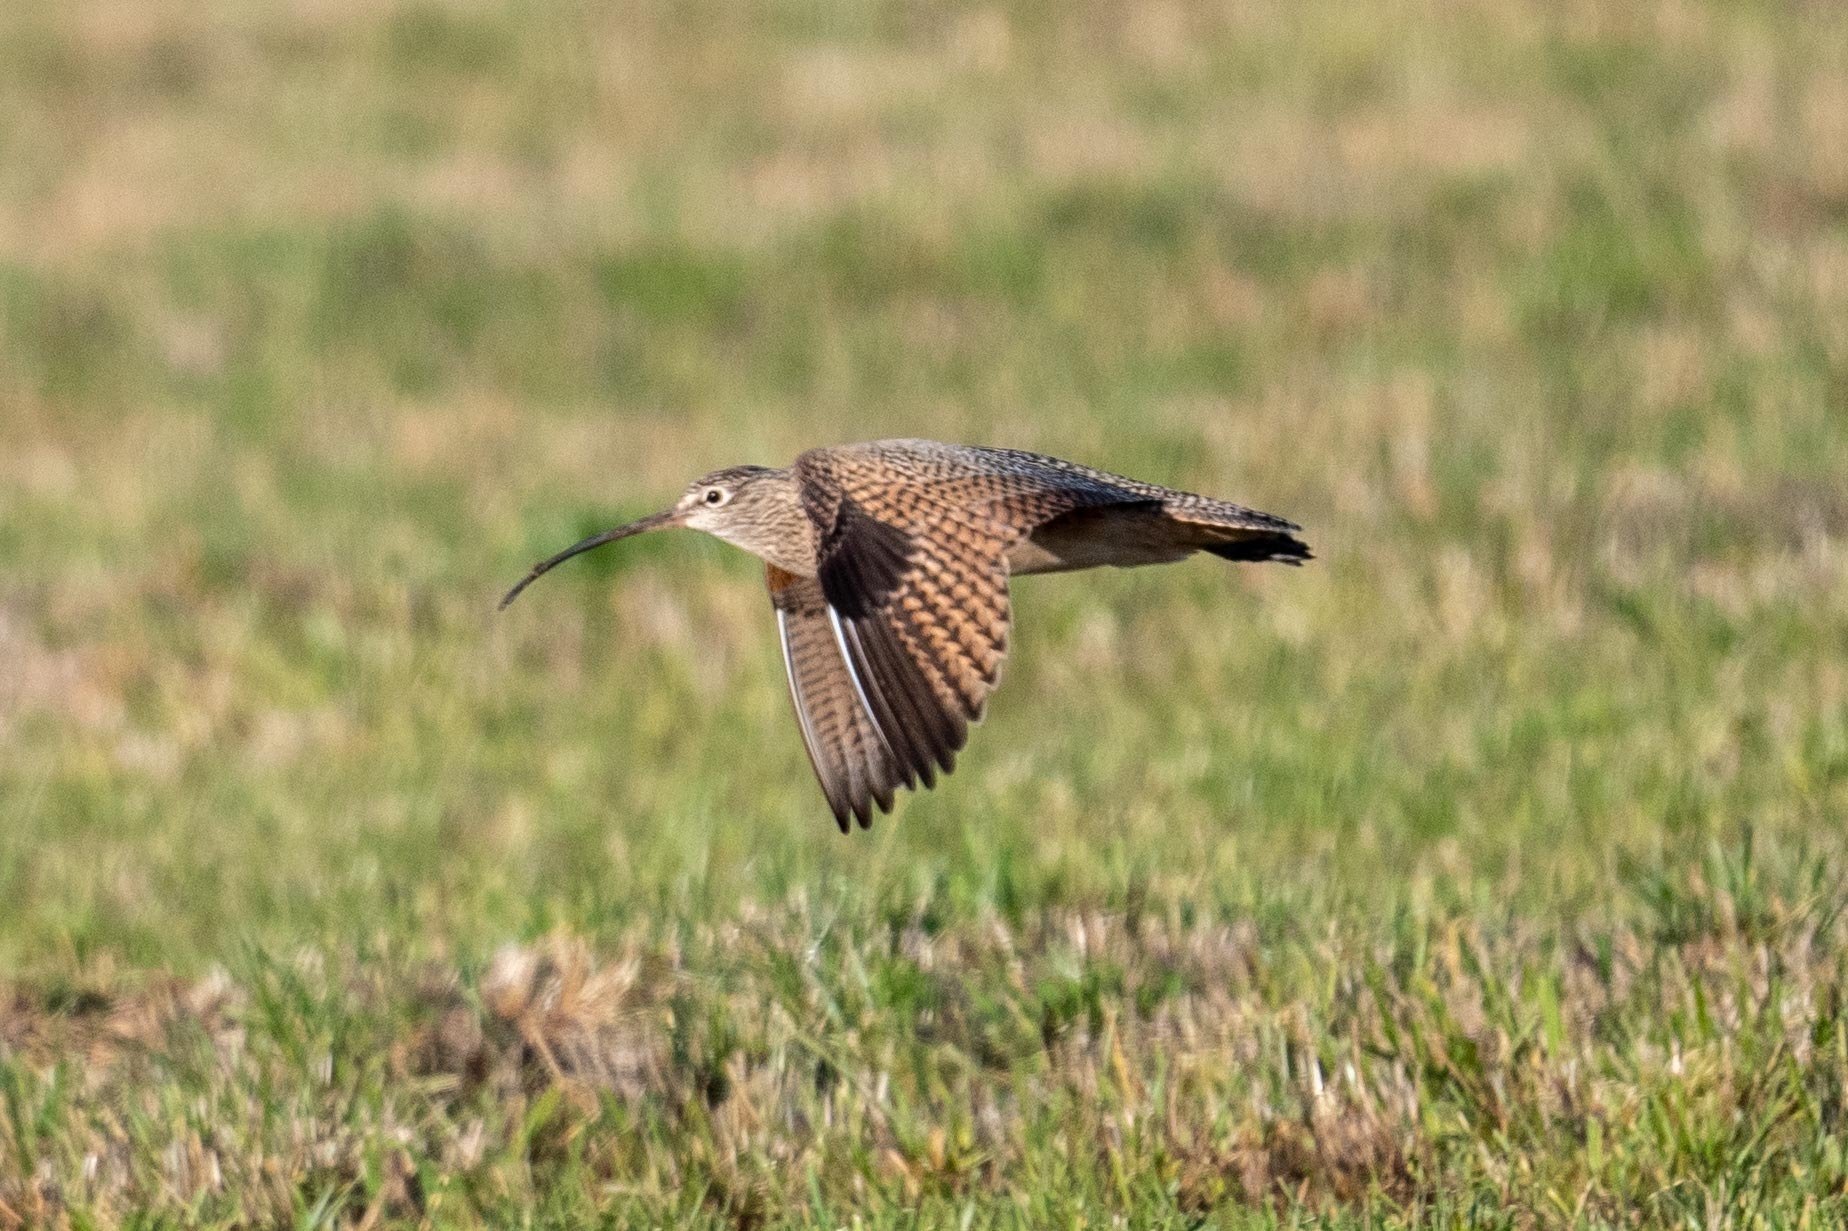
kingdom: Animalia
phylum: Chordata
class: Aves
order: Charadriiformes
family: Scolopacidae
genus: Numenius
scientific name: Numenius americanus
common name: Long-billed curlew
